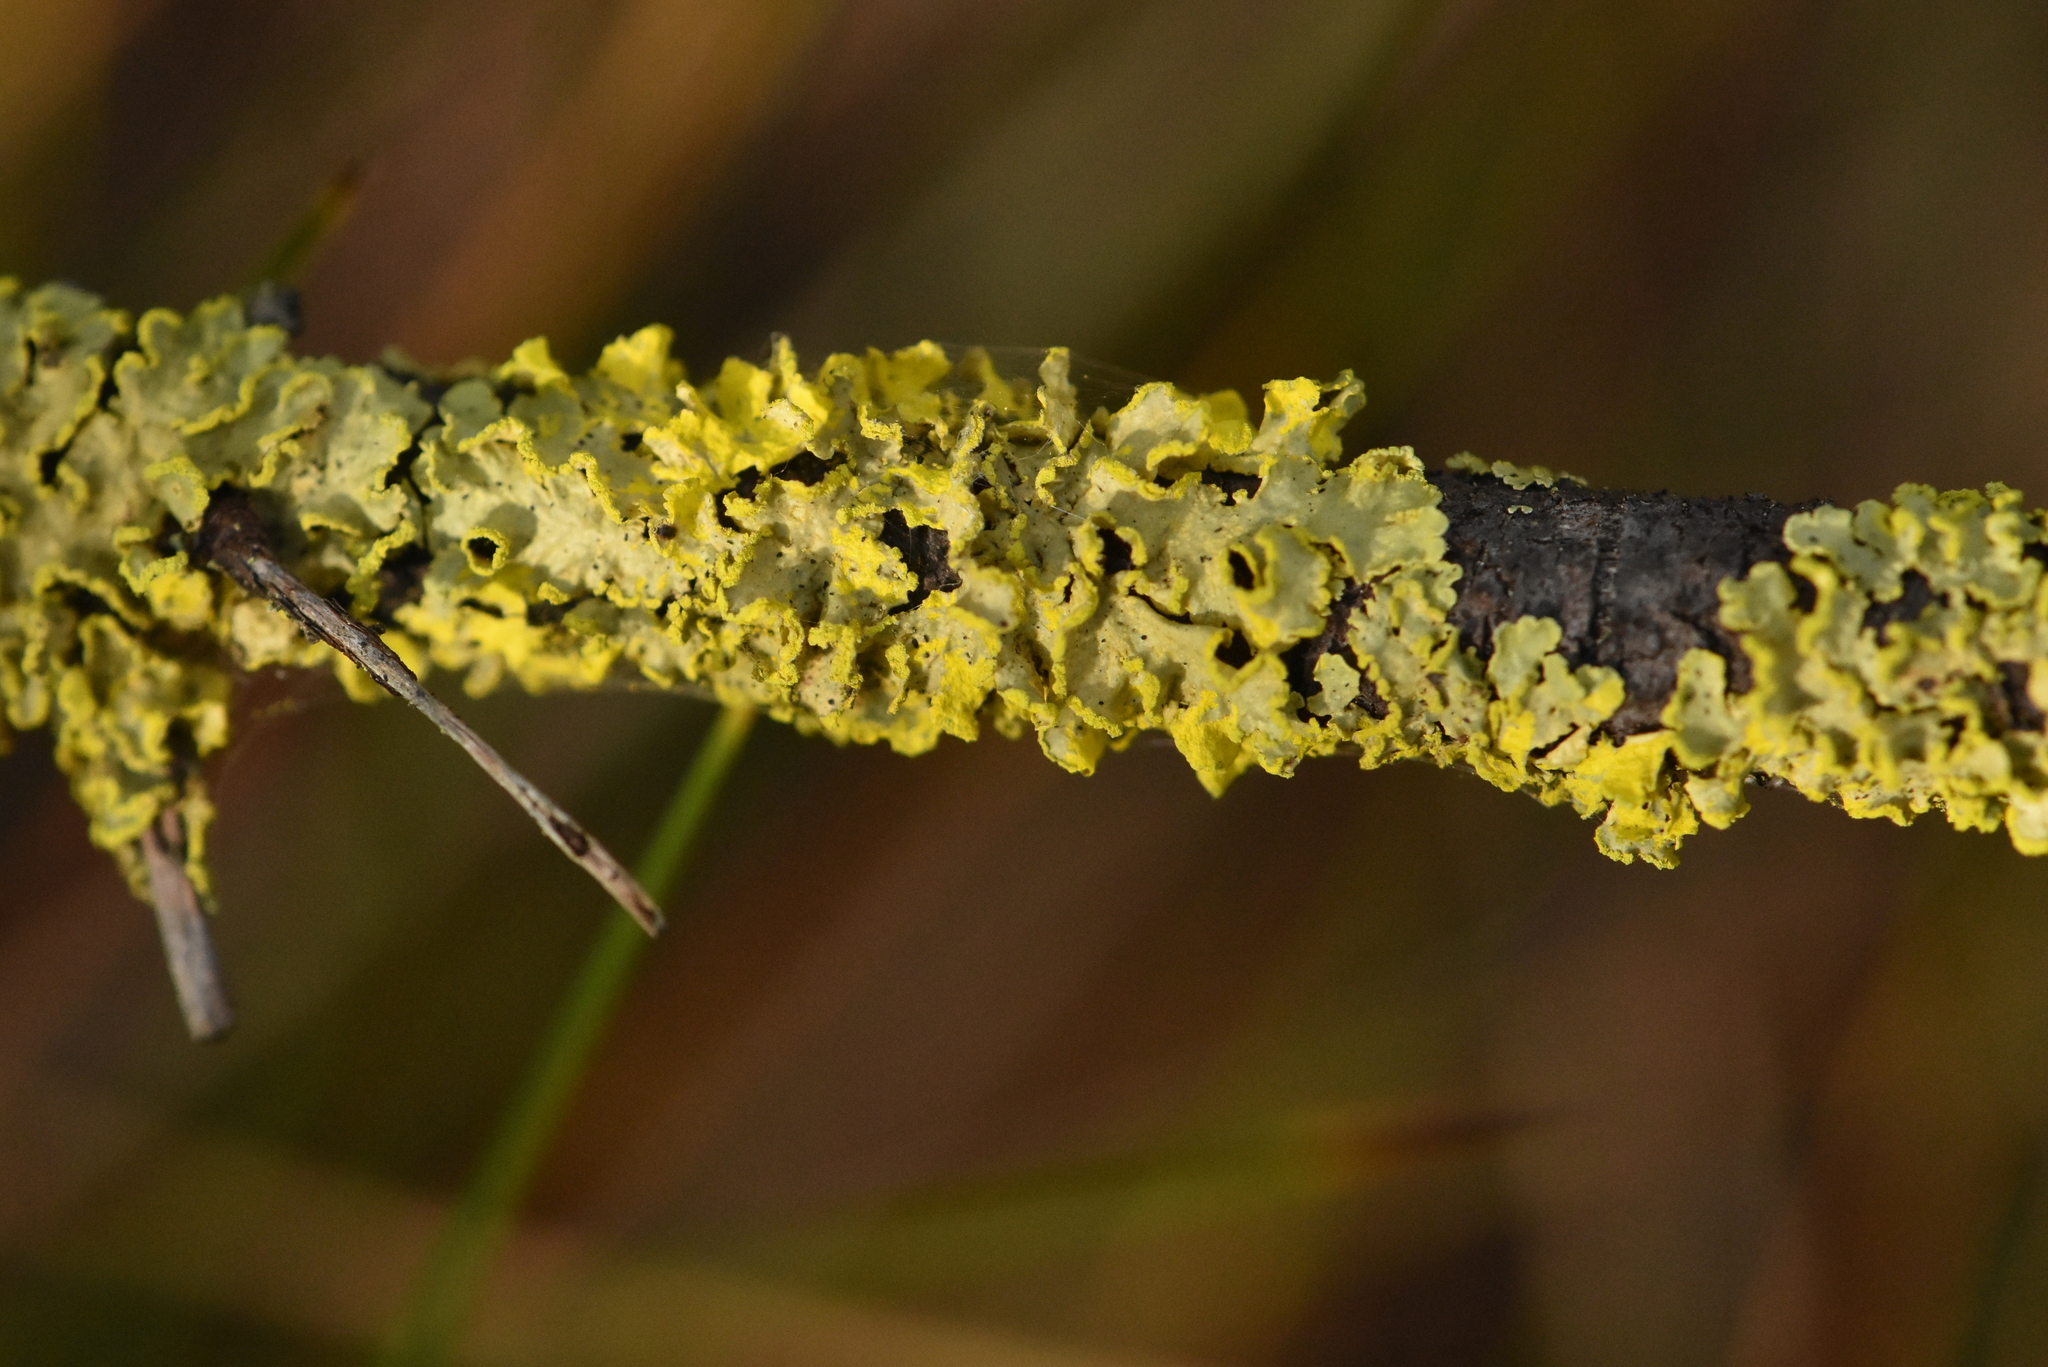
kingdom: Fungi
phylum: Ascomycota
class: Lecanoromycetes
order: Lecanorales
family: Parmeliaceae
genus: Vulpicida
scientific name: Vulpicida pinastri
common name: Powdered sunshine lichen
